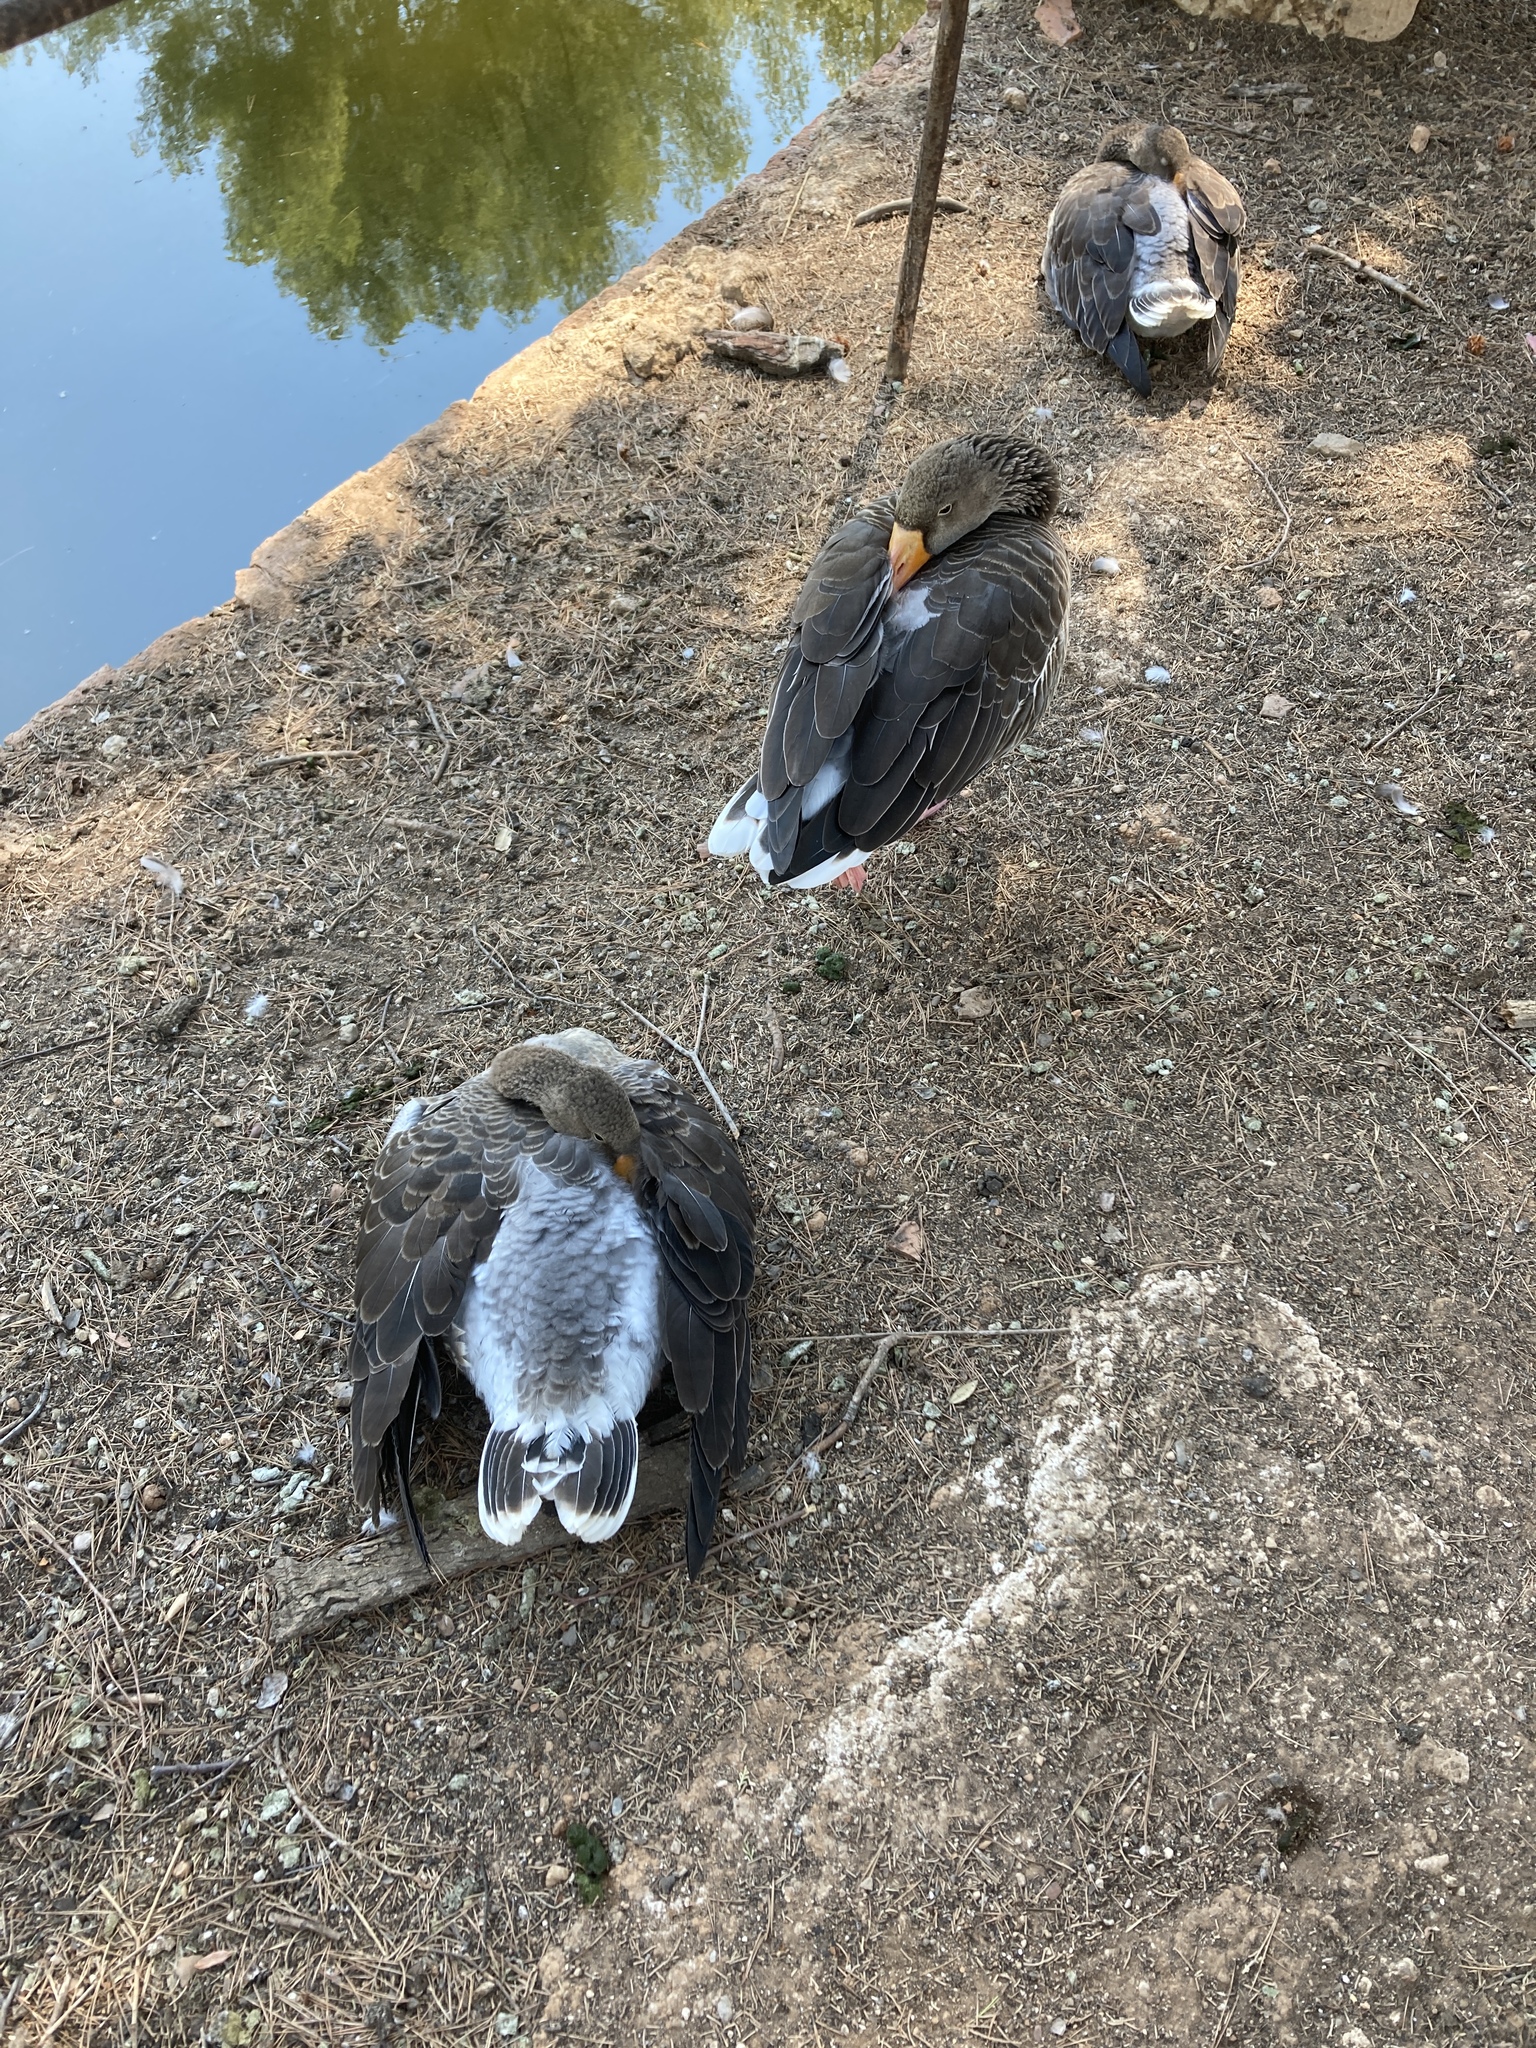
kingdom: Animalia
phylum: Chordata
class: Aves
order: Anseriformes
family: Anatidae
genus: Anser
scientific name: Anser anser
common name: Greylag goose
